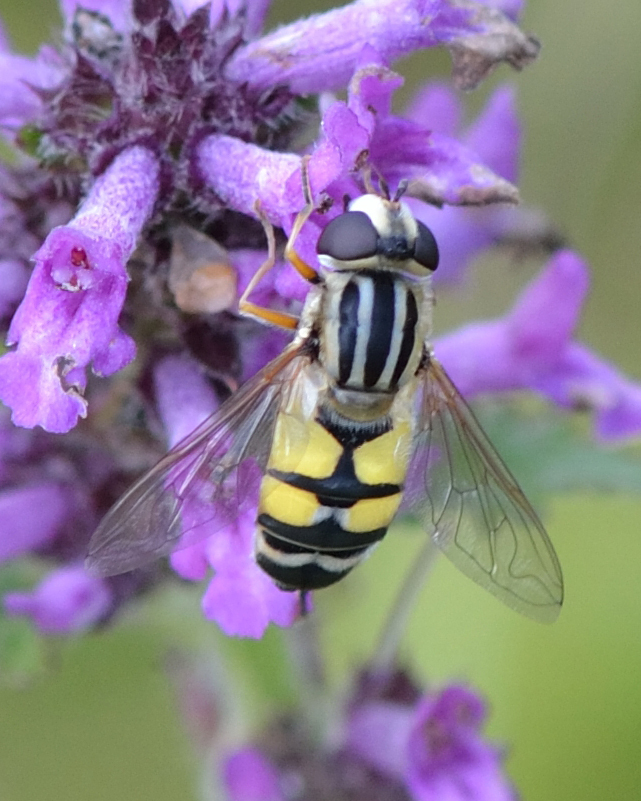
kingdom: Animalia
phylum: Arthropoda
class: Insecta
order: Diptera
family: Syrphidae
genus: Helophilus
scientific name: Helophilus trivittatus
